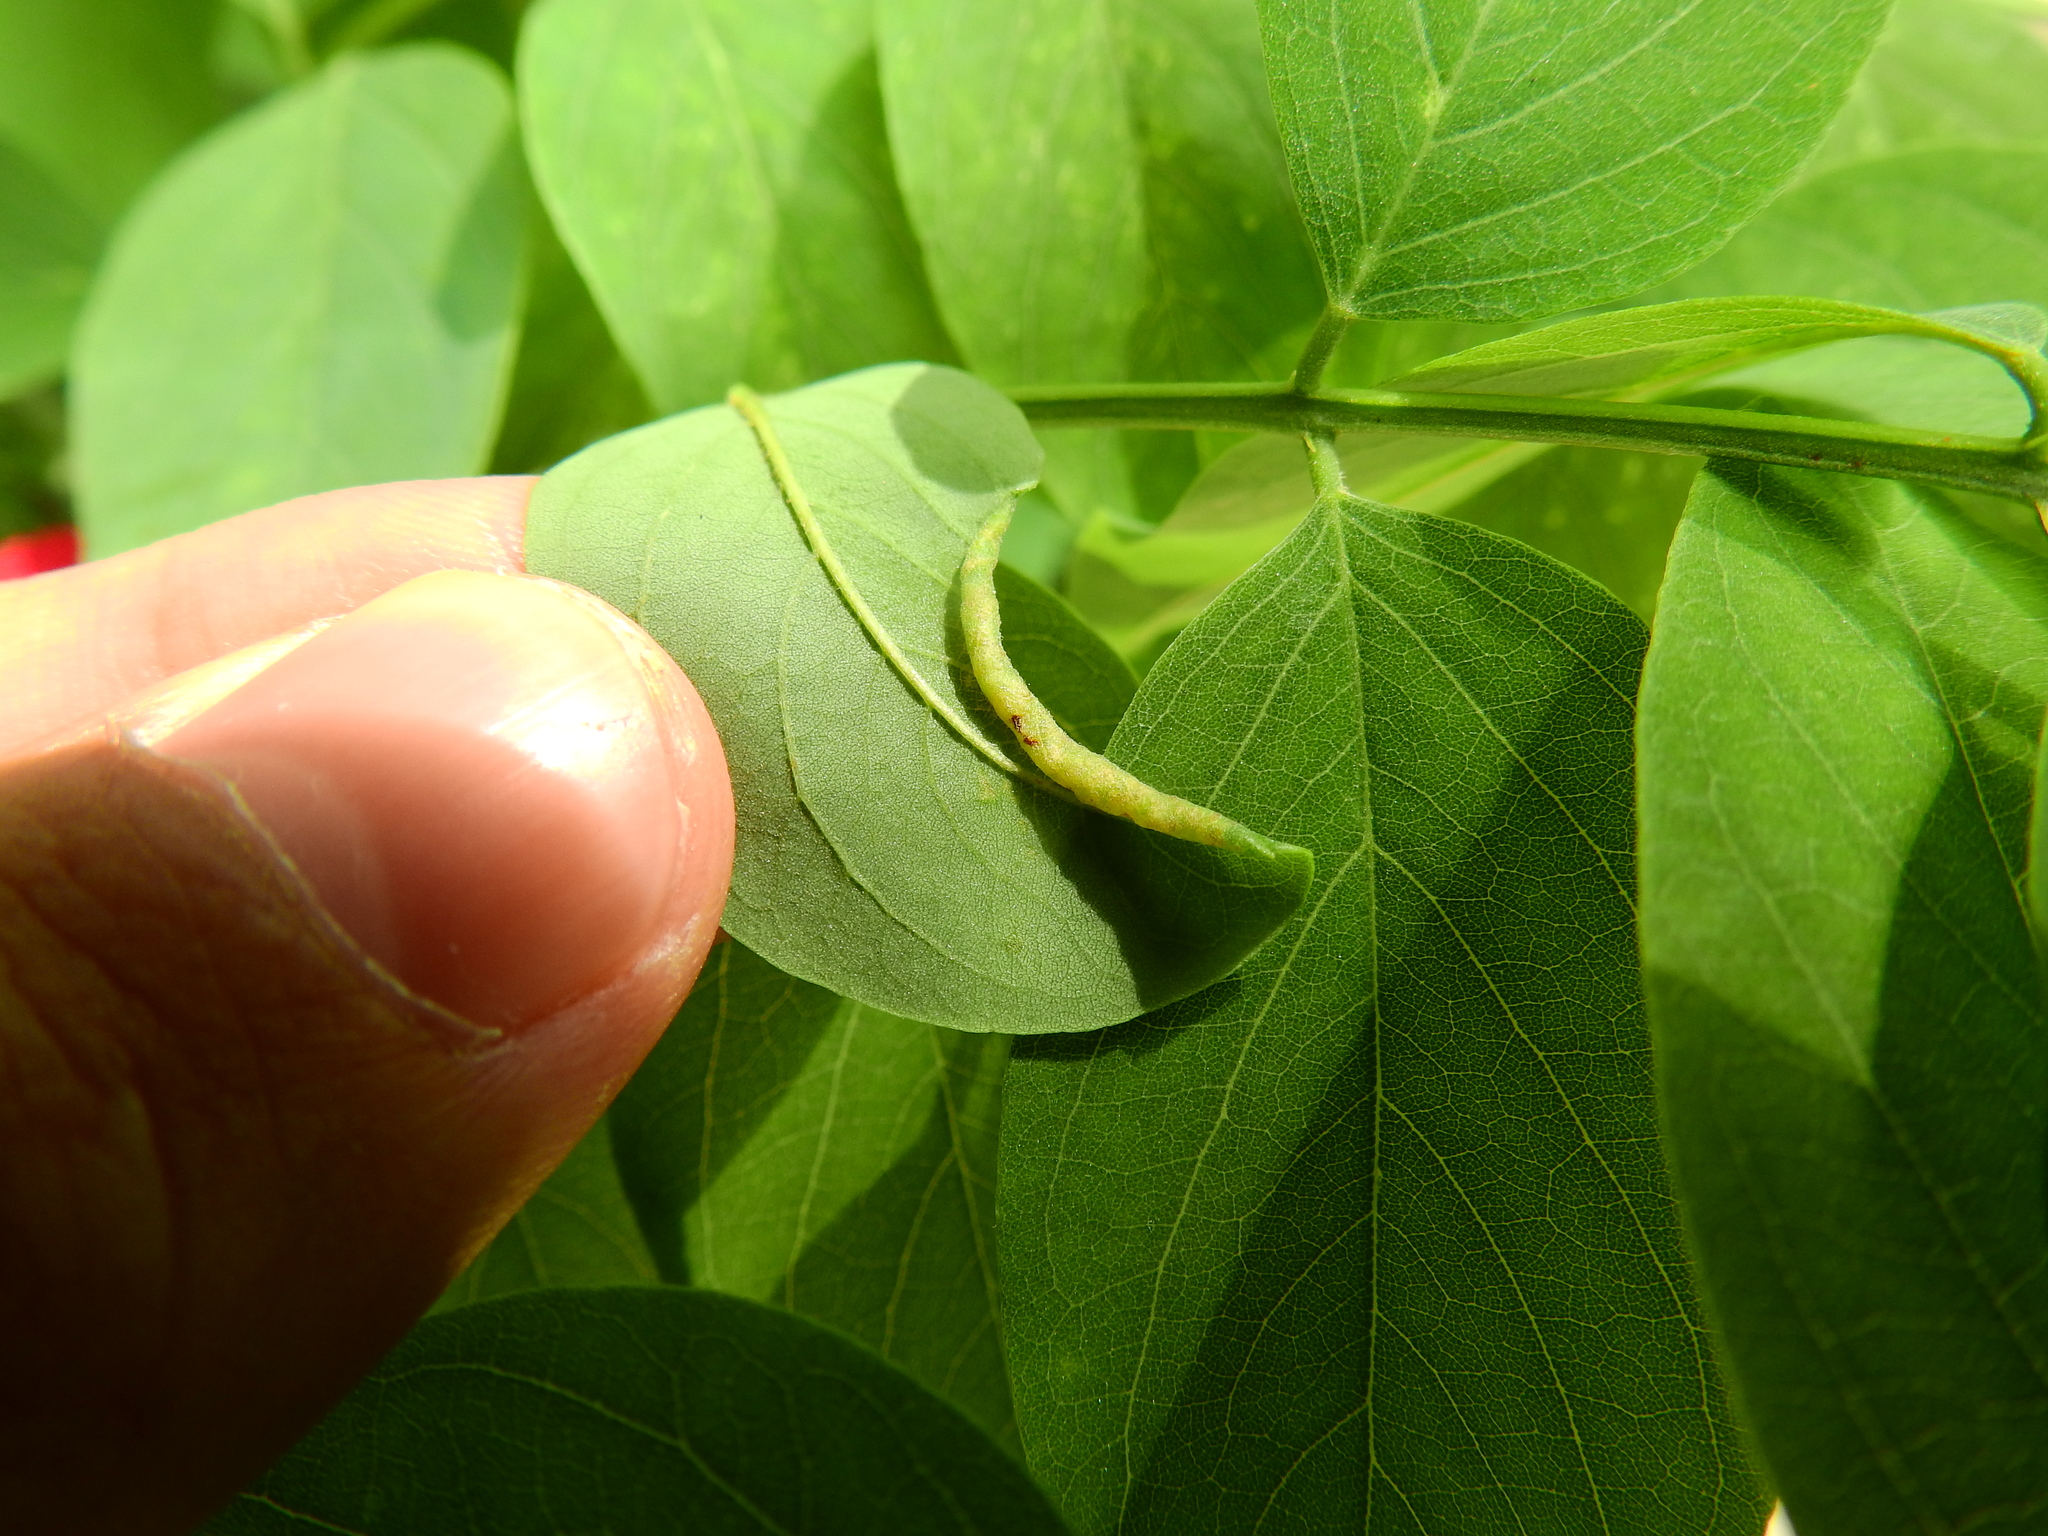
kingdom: Animalia
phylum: Arthropoda
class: Insecta
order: Diptera
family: Cecidomyiidae
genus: Obolodiplosis
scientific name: Obolodiplosis robiniae
